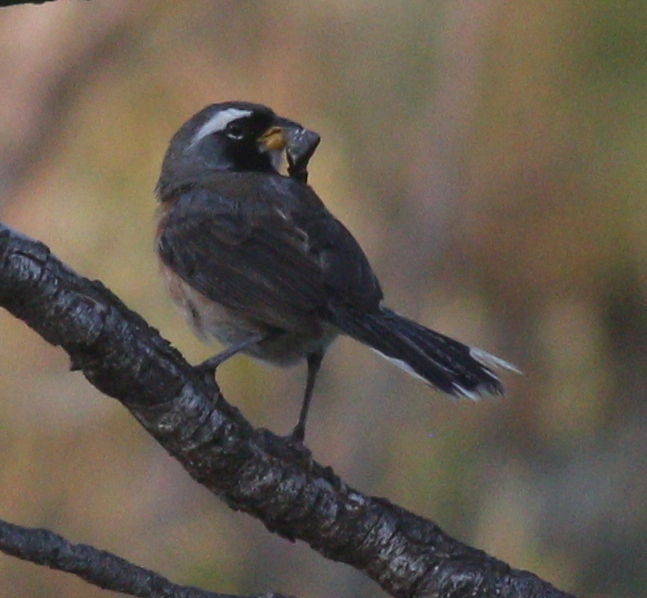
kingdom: Animalia
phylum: Chordata
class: Aves
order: Passeriformes
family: Thraupidae
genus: Saltatricula
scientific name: Saltatricula multicolor
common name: Many-colored chaco finch
